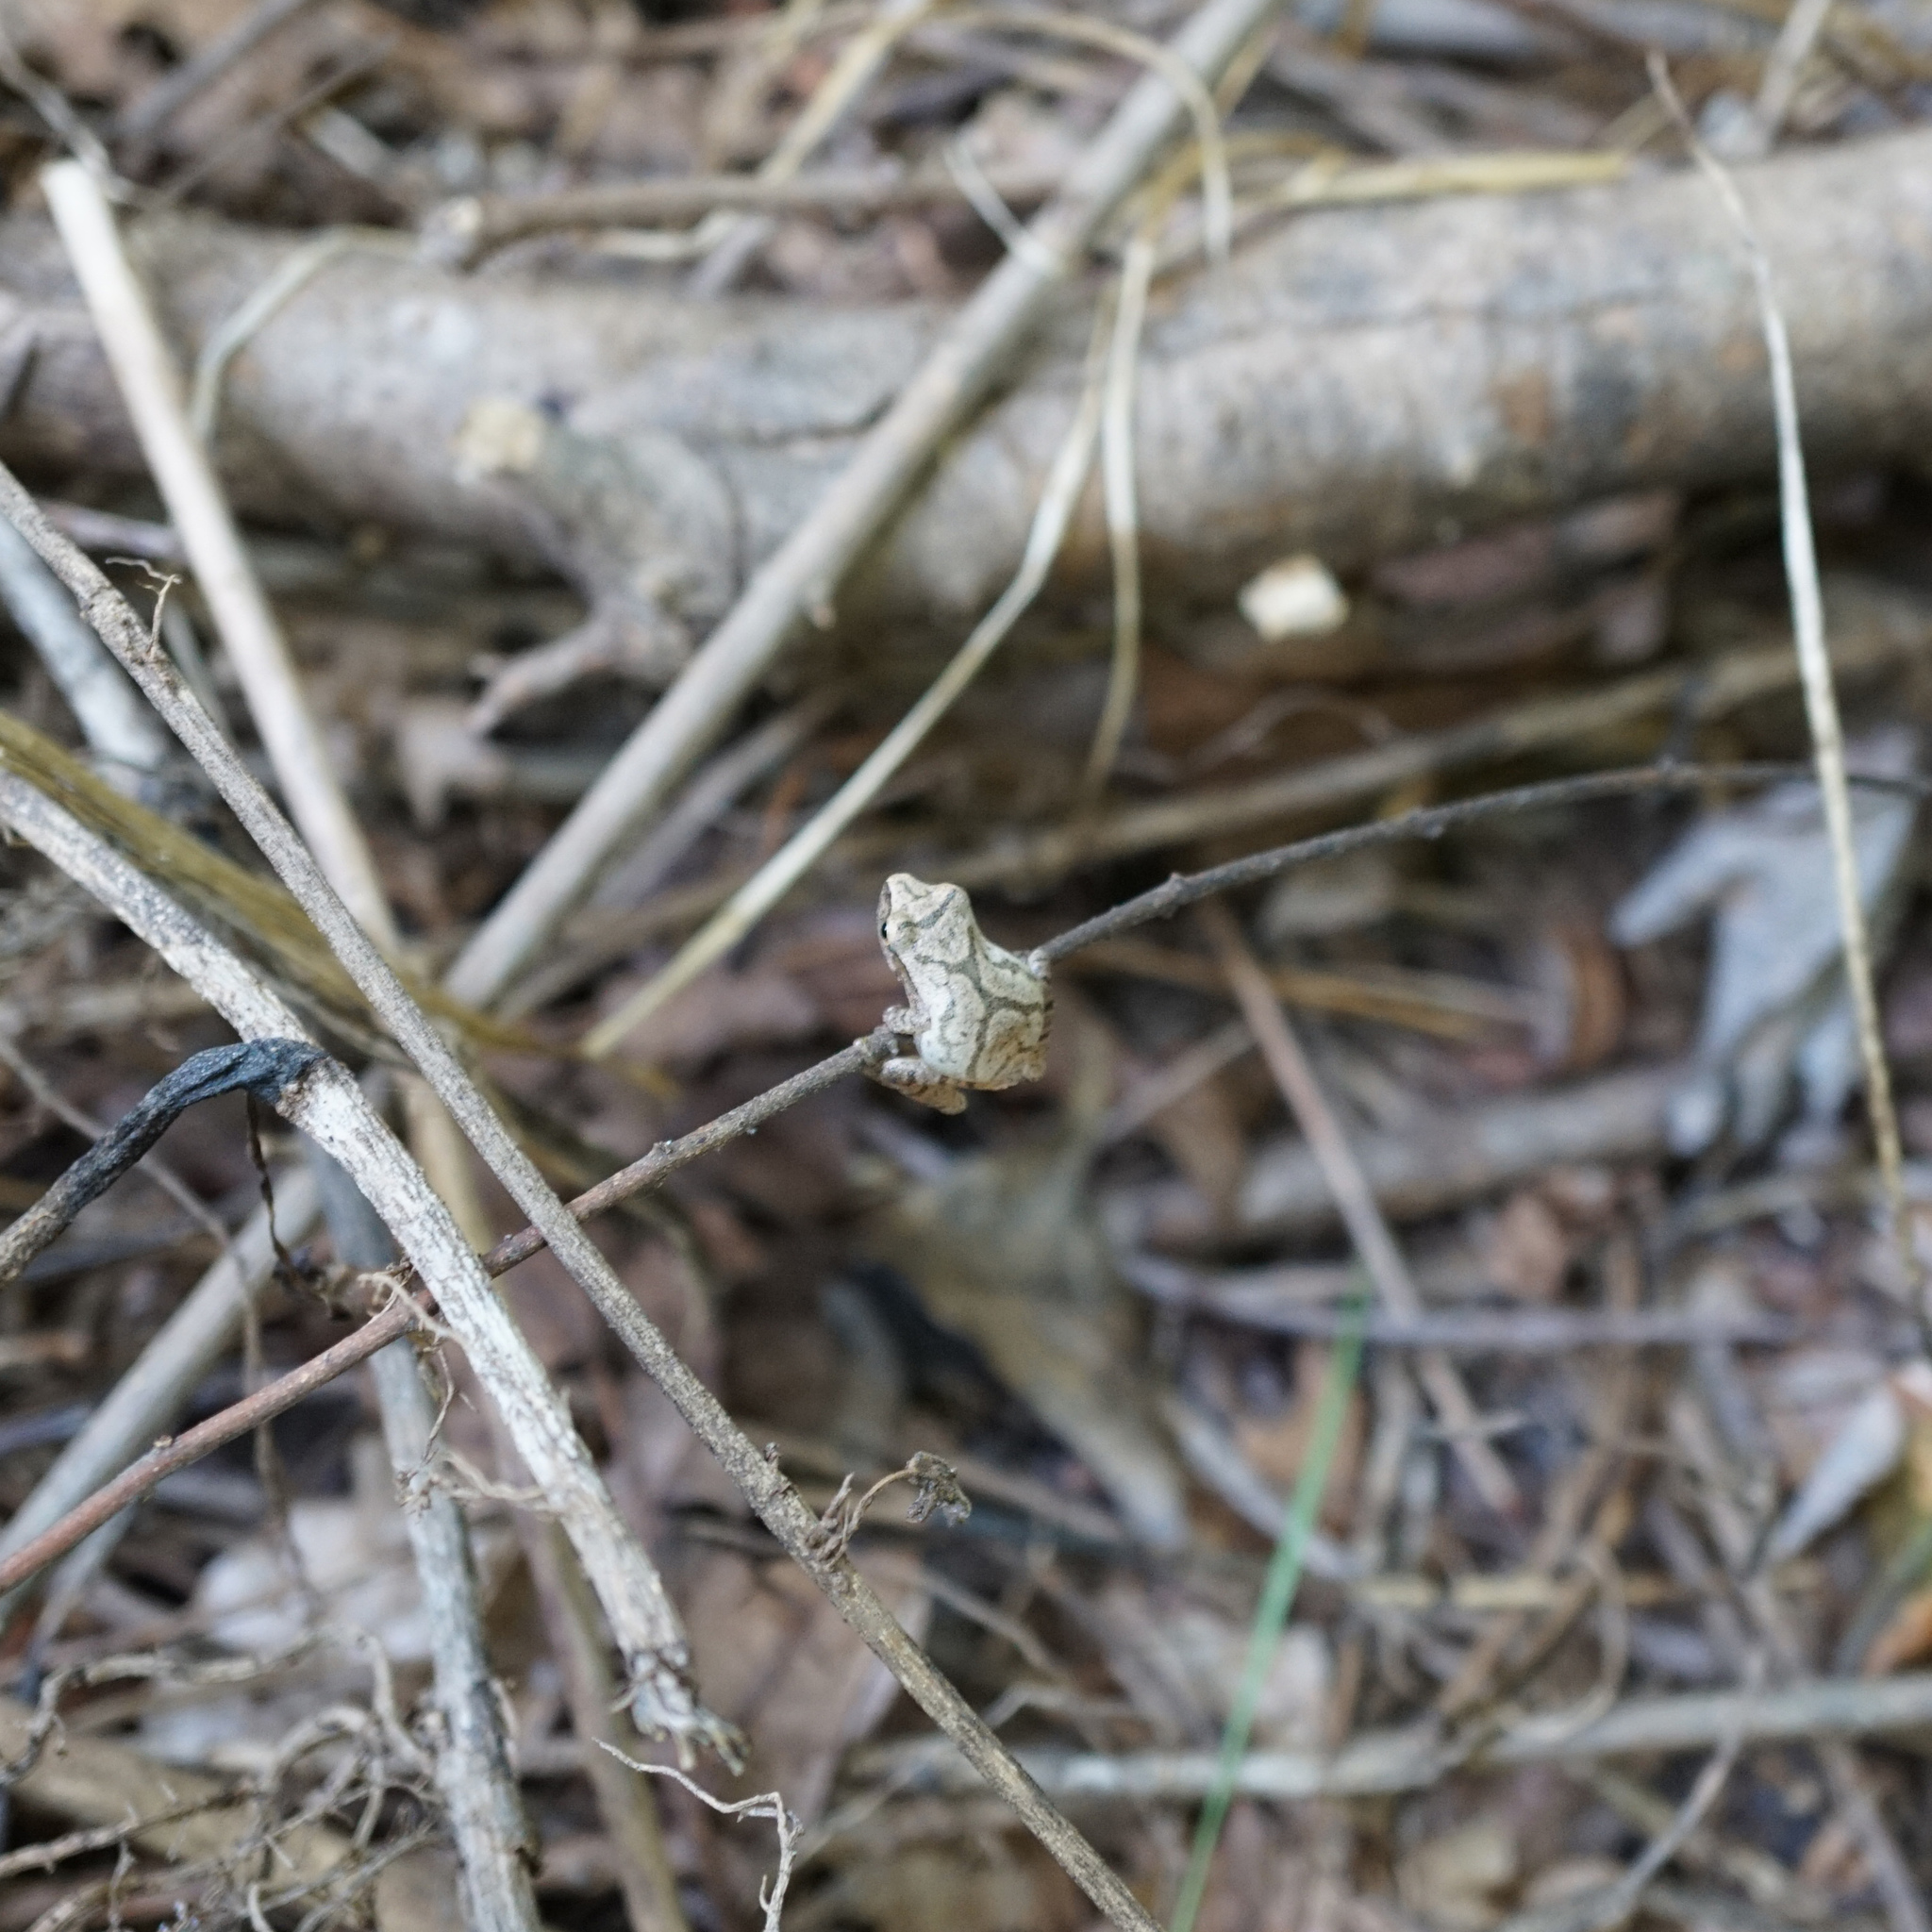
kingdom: Animalia
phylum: Chordata
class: Amphibia
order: Anura
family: Hylidae
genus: Pseudacris
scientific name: Pseudacris crucifer
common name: Spring peeper
